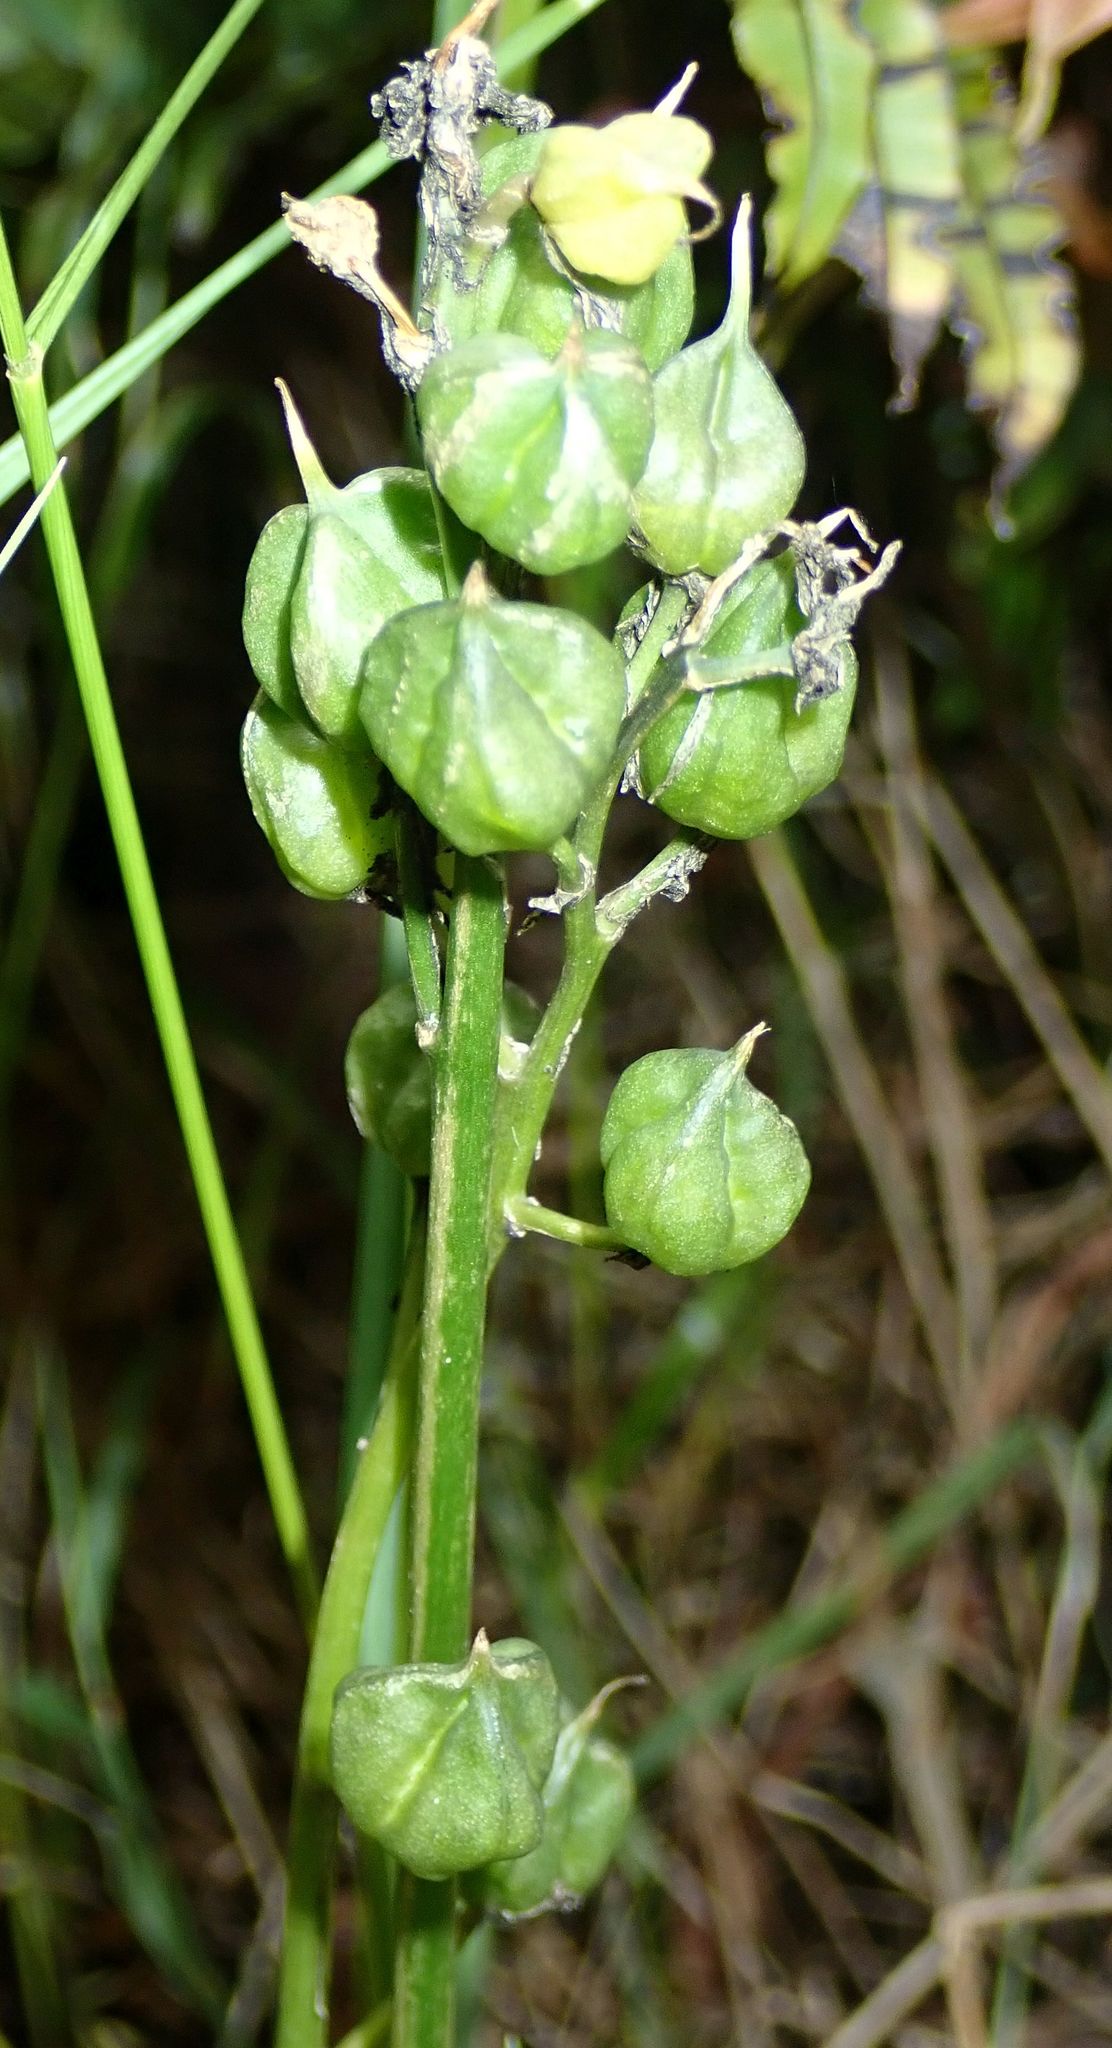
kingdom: Plantae
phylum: Tracheophyta
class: Liliopsida
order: Asparagales
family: Asparagaceae
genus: Hyacinthoides
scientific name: Hyacinthoides massartiana
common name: Hyacinthoides
